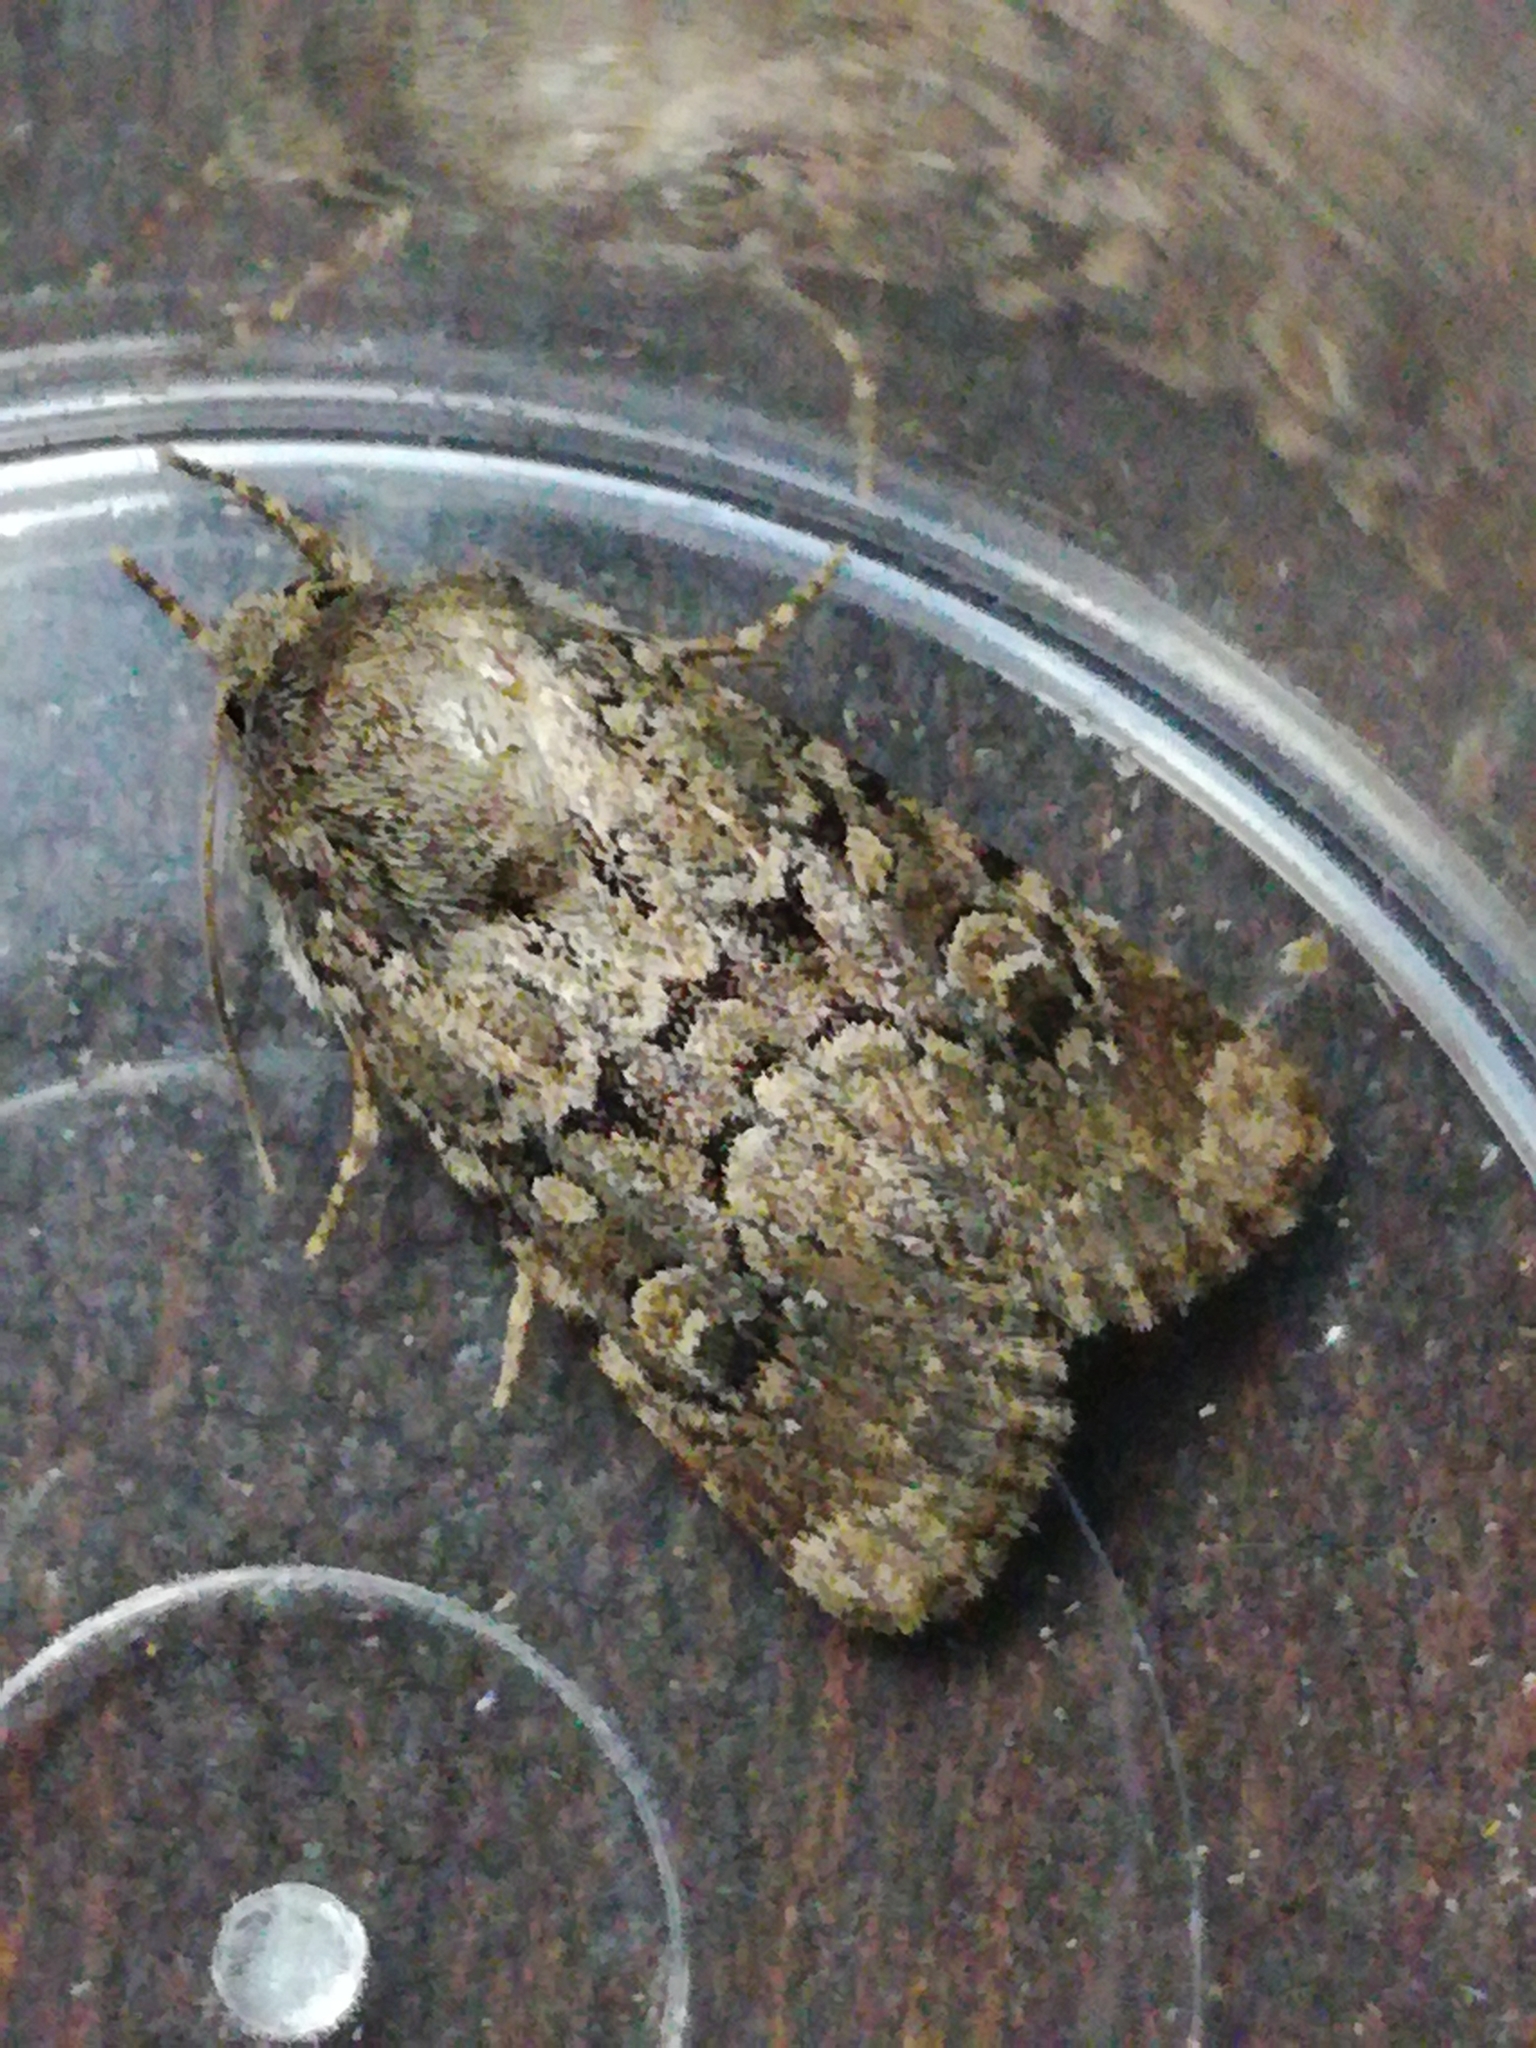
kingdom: Animalia
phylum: Arthropoda
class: Insecta
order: Lepidoptera
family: Noctuidae
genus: Luperina
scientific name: Luperina testacea
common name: Flounced rustic
